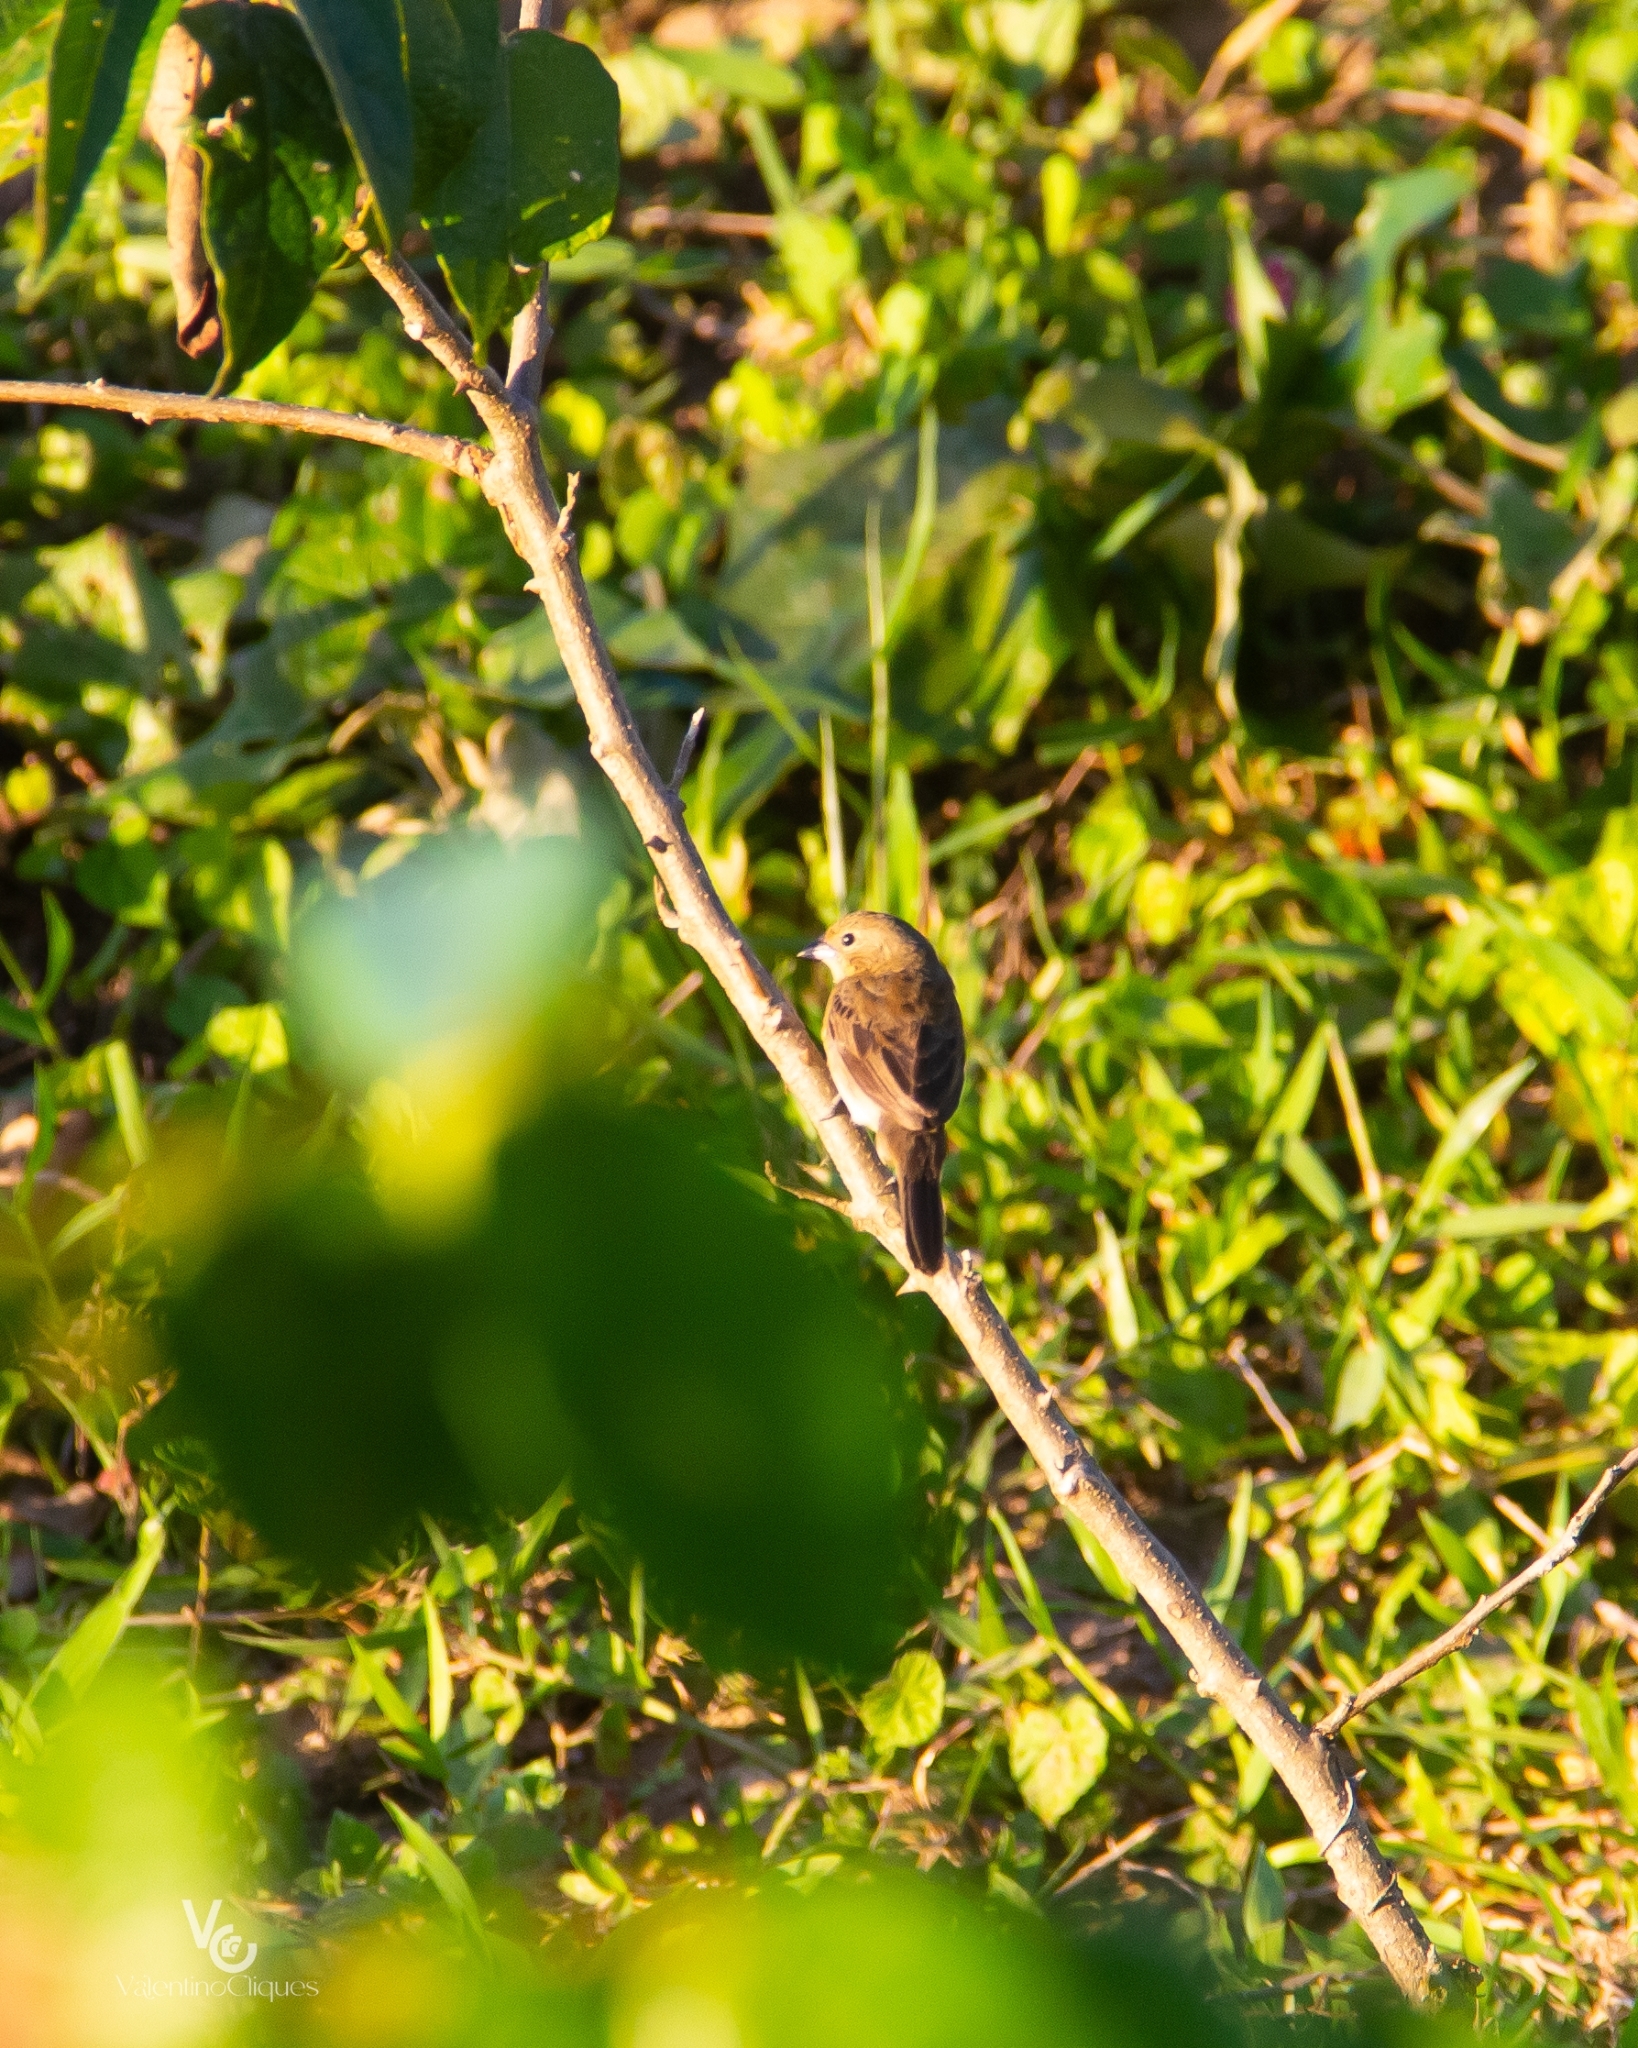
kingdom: Animalia
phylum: Chordata
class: Aves
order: Passeriformes
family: Thraupidae
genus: Volatinia
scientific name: Volatinia jacarina
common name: Blue-black grassquit
